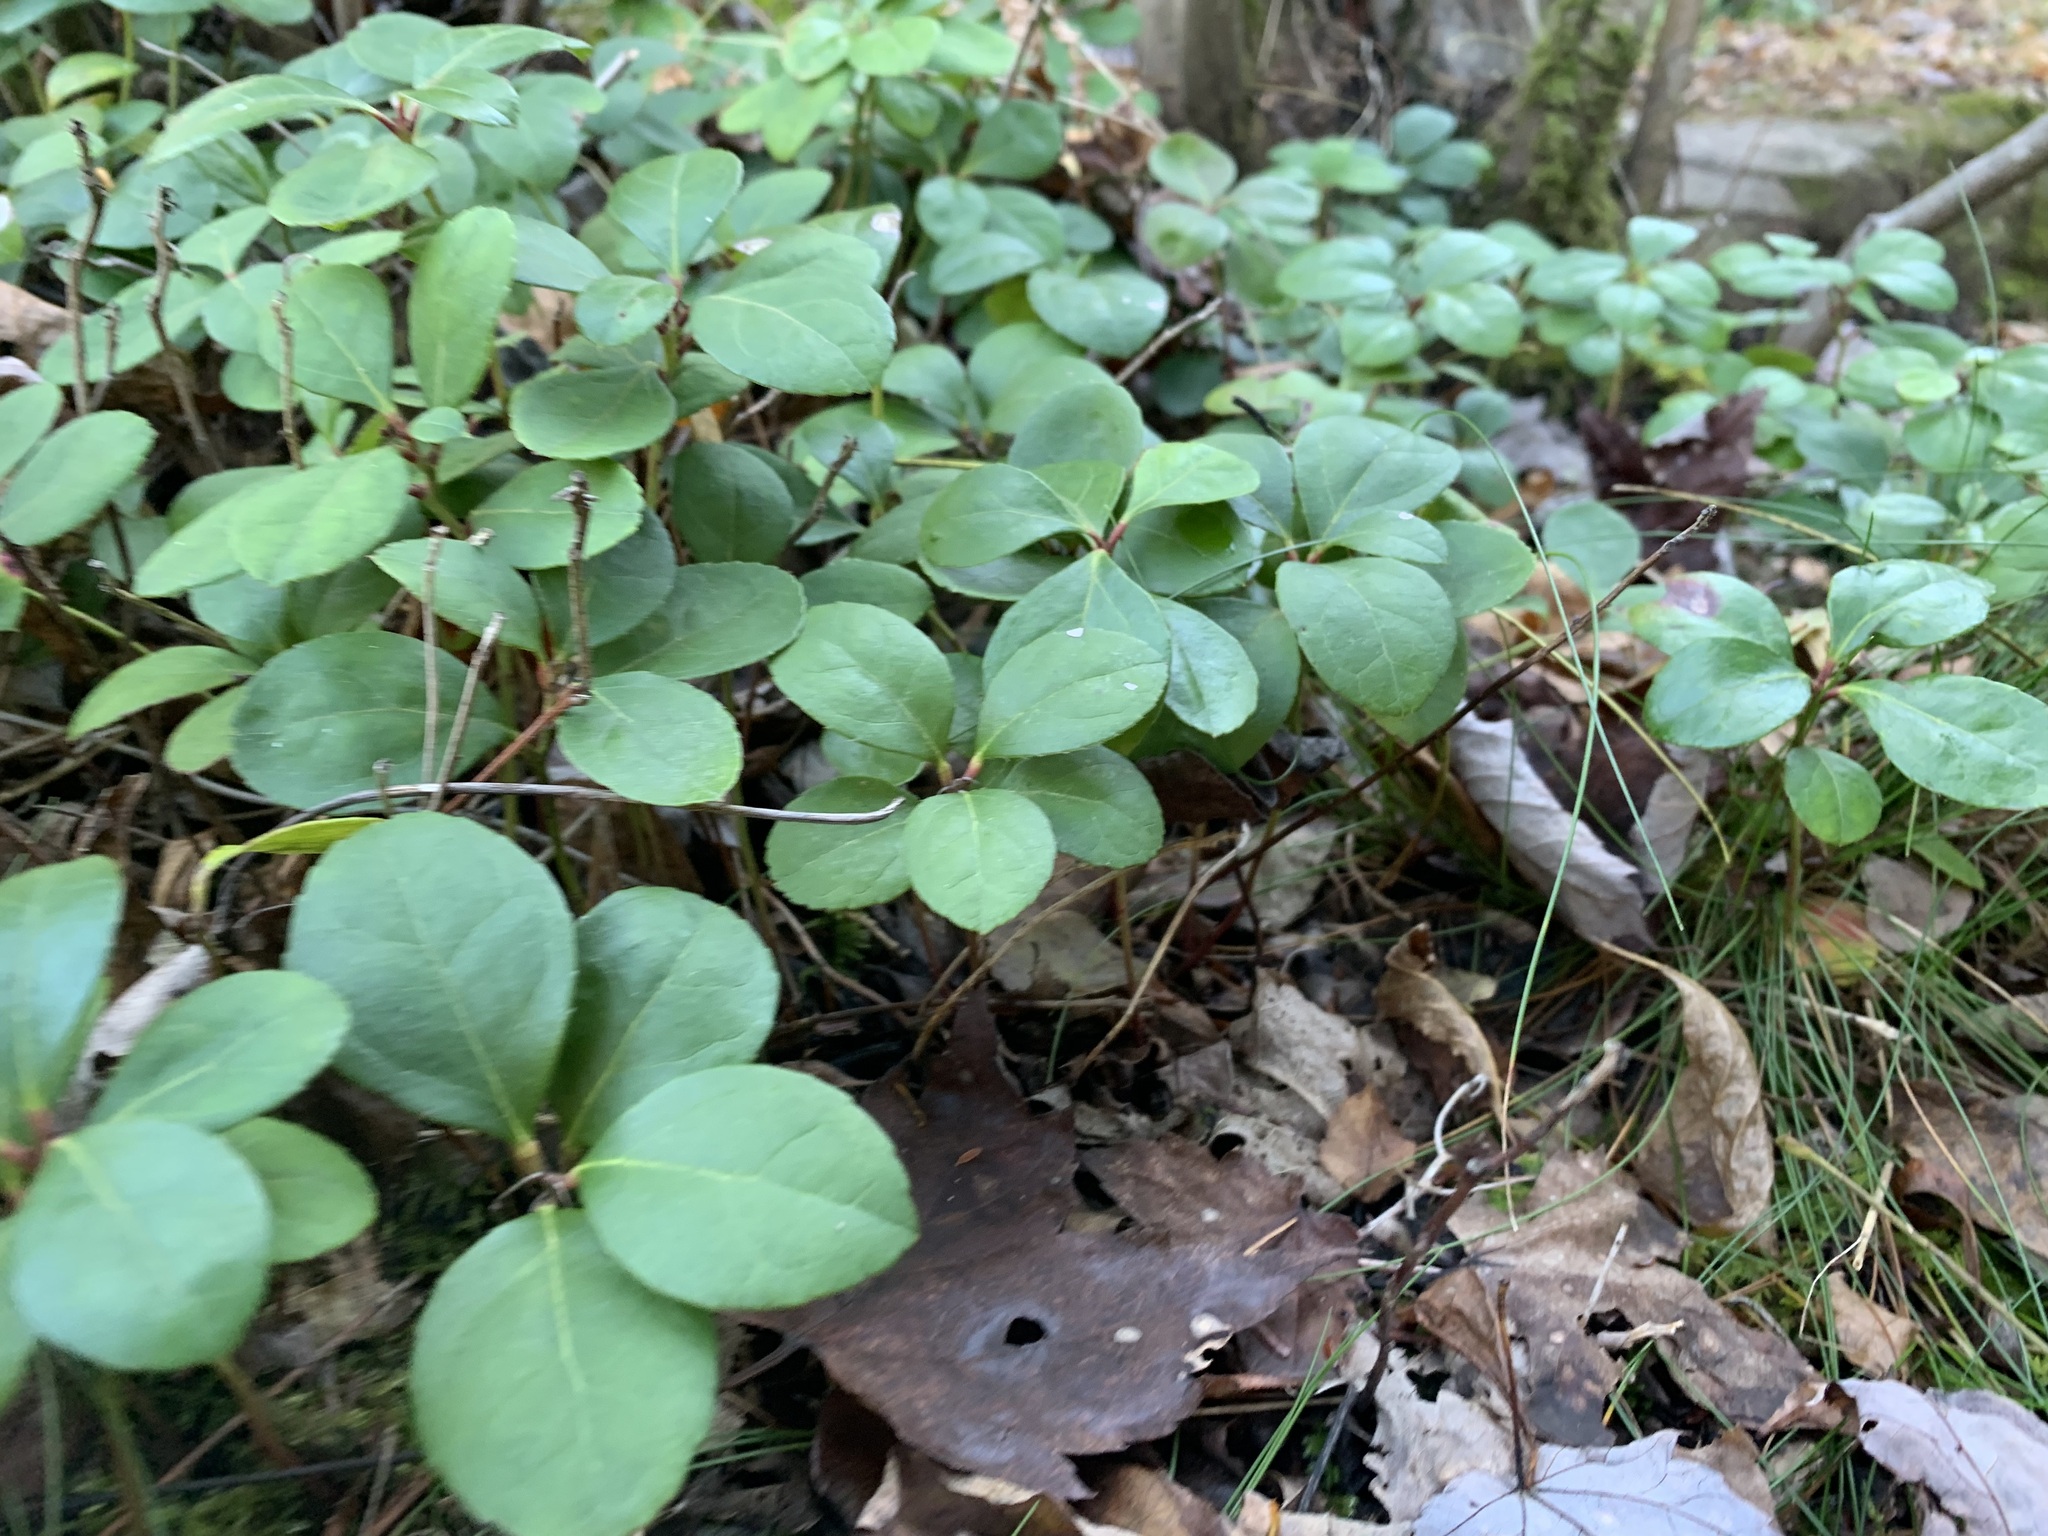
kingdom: Plantae
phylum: Tracheophyta
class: Magnoliopsida
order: Ericales
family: Ericaceae
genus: Gaultheria
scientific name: Gaultheria procumbens
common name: Checkerberry
